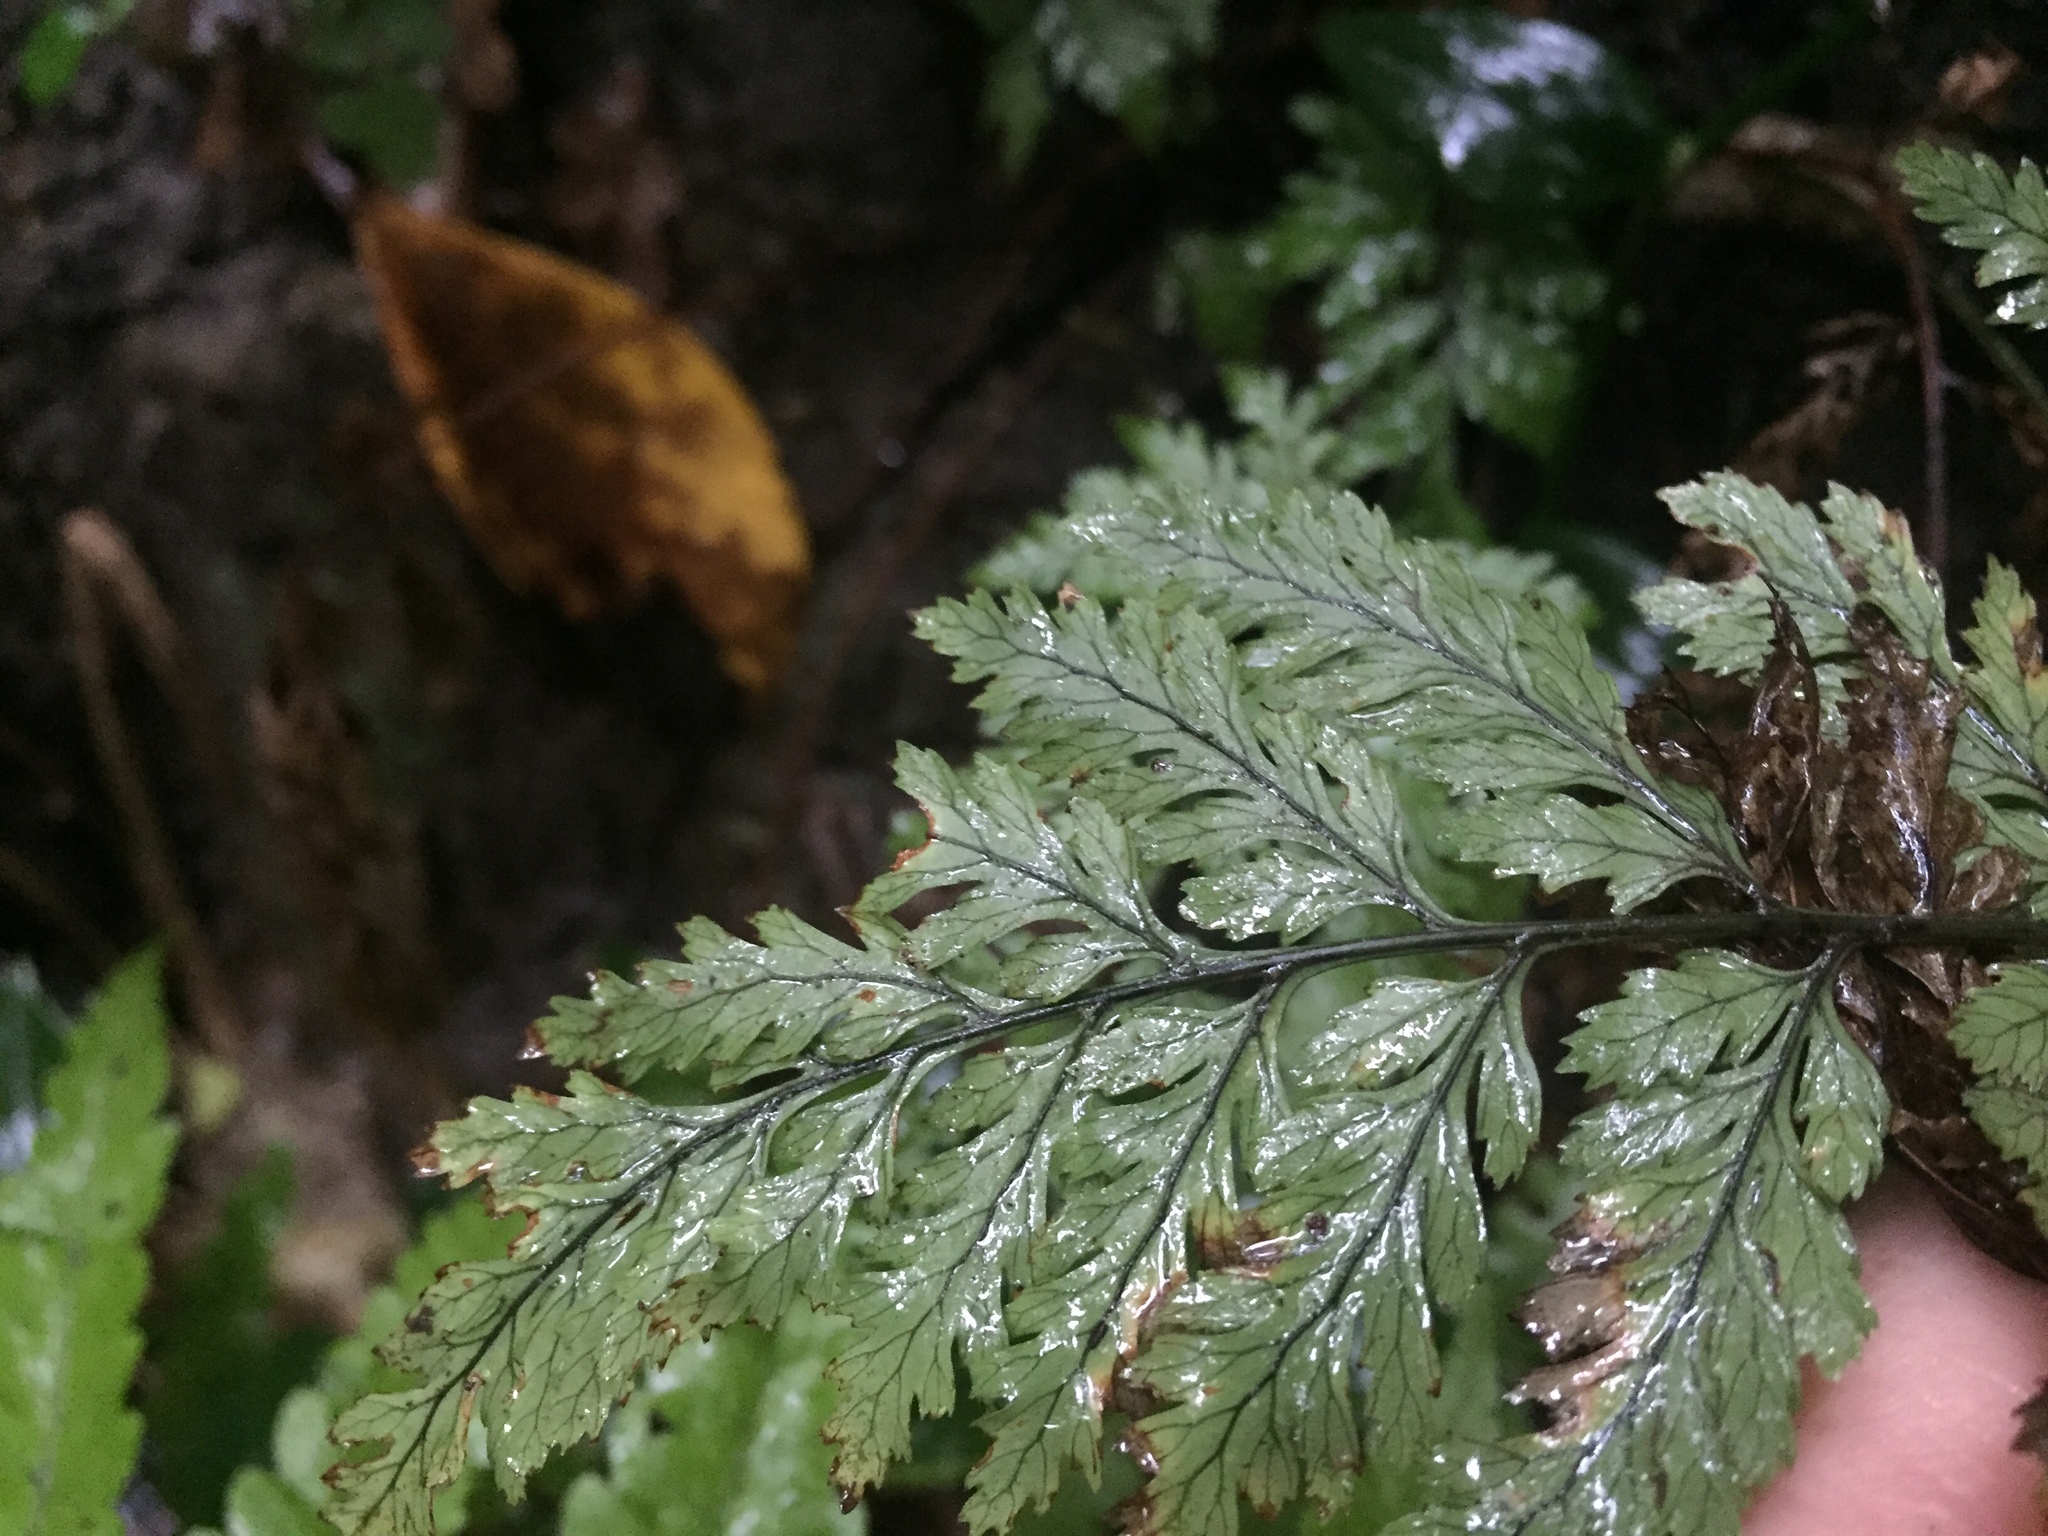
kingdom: Plantae
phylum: Tracheophyta
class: Polypodiopsida
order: Polypodiales
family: Dryopteridaceae
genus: Parapolystichum
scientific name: Parapolystichum glabellum
